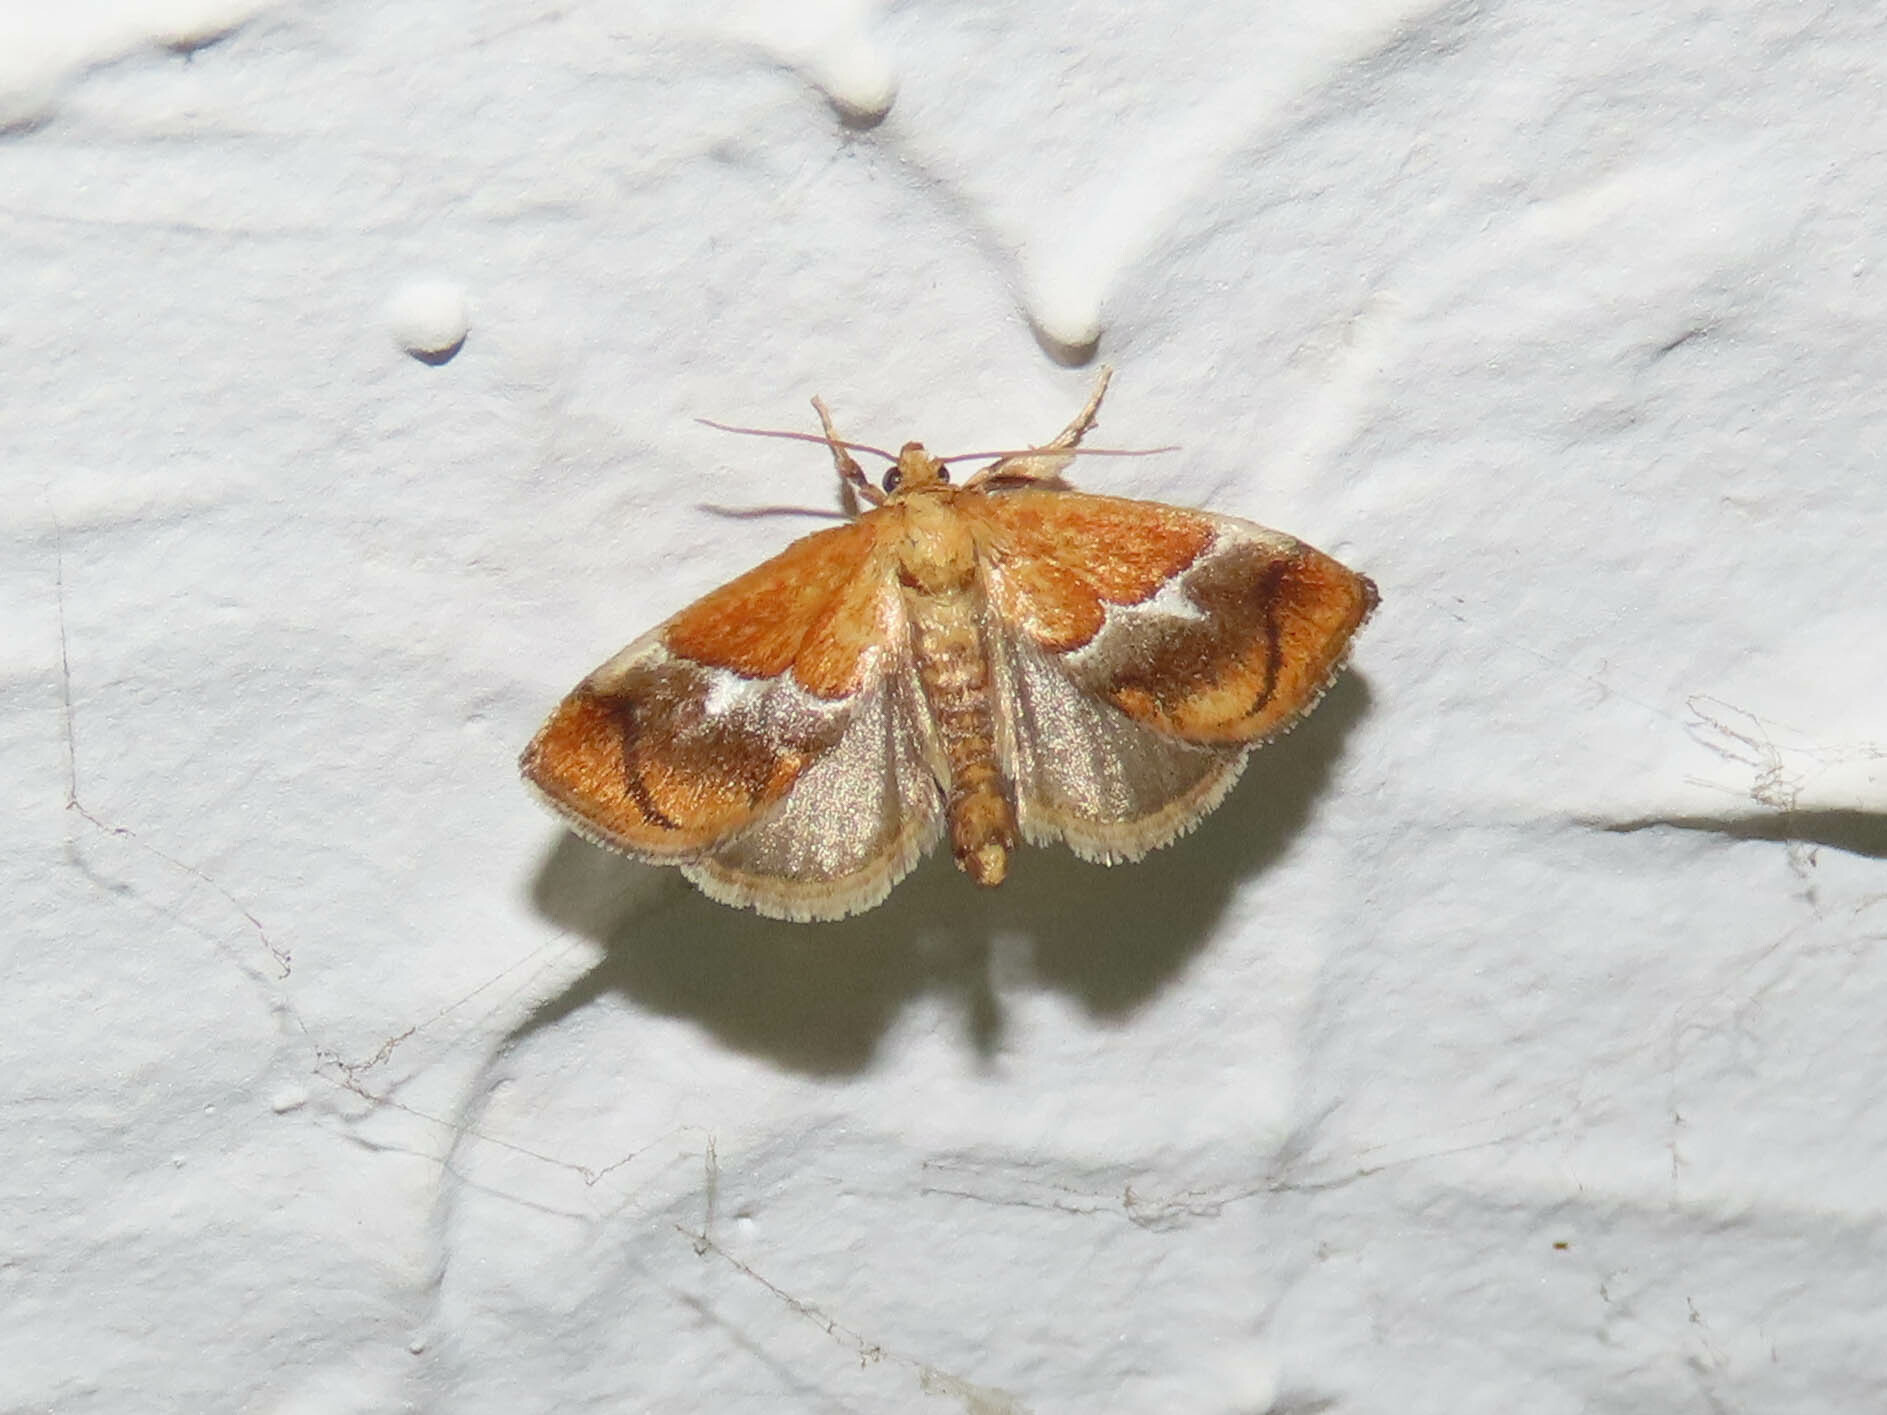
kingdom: Animalia
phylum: Arthropoda
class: Insecta
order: Lepidoptera
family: Limacodidae
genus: Lithacodes
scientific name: Lithacodes fasciola
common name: Yellow-shouldered slug moth
